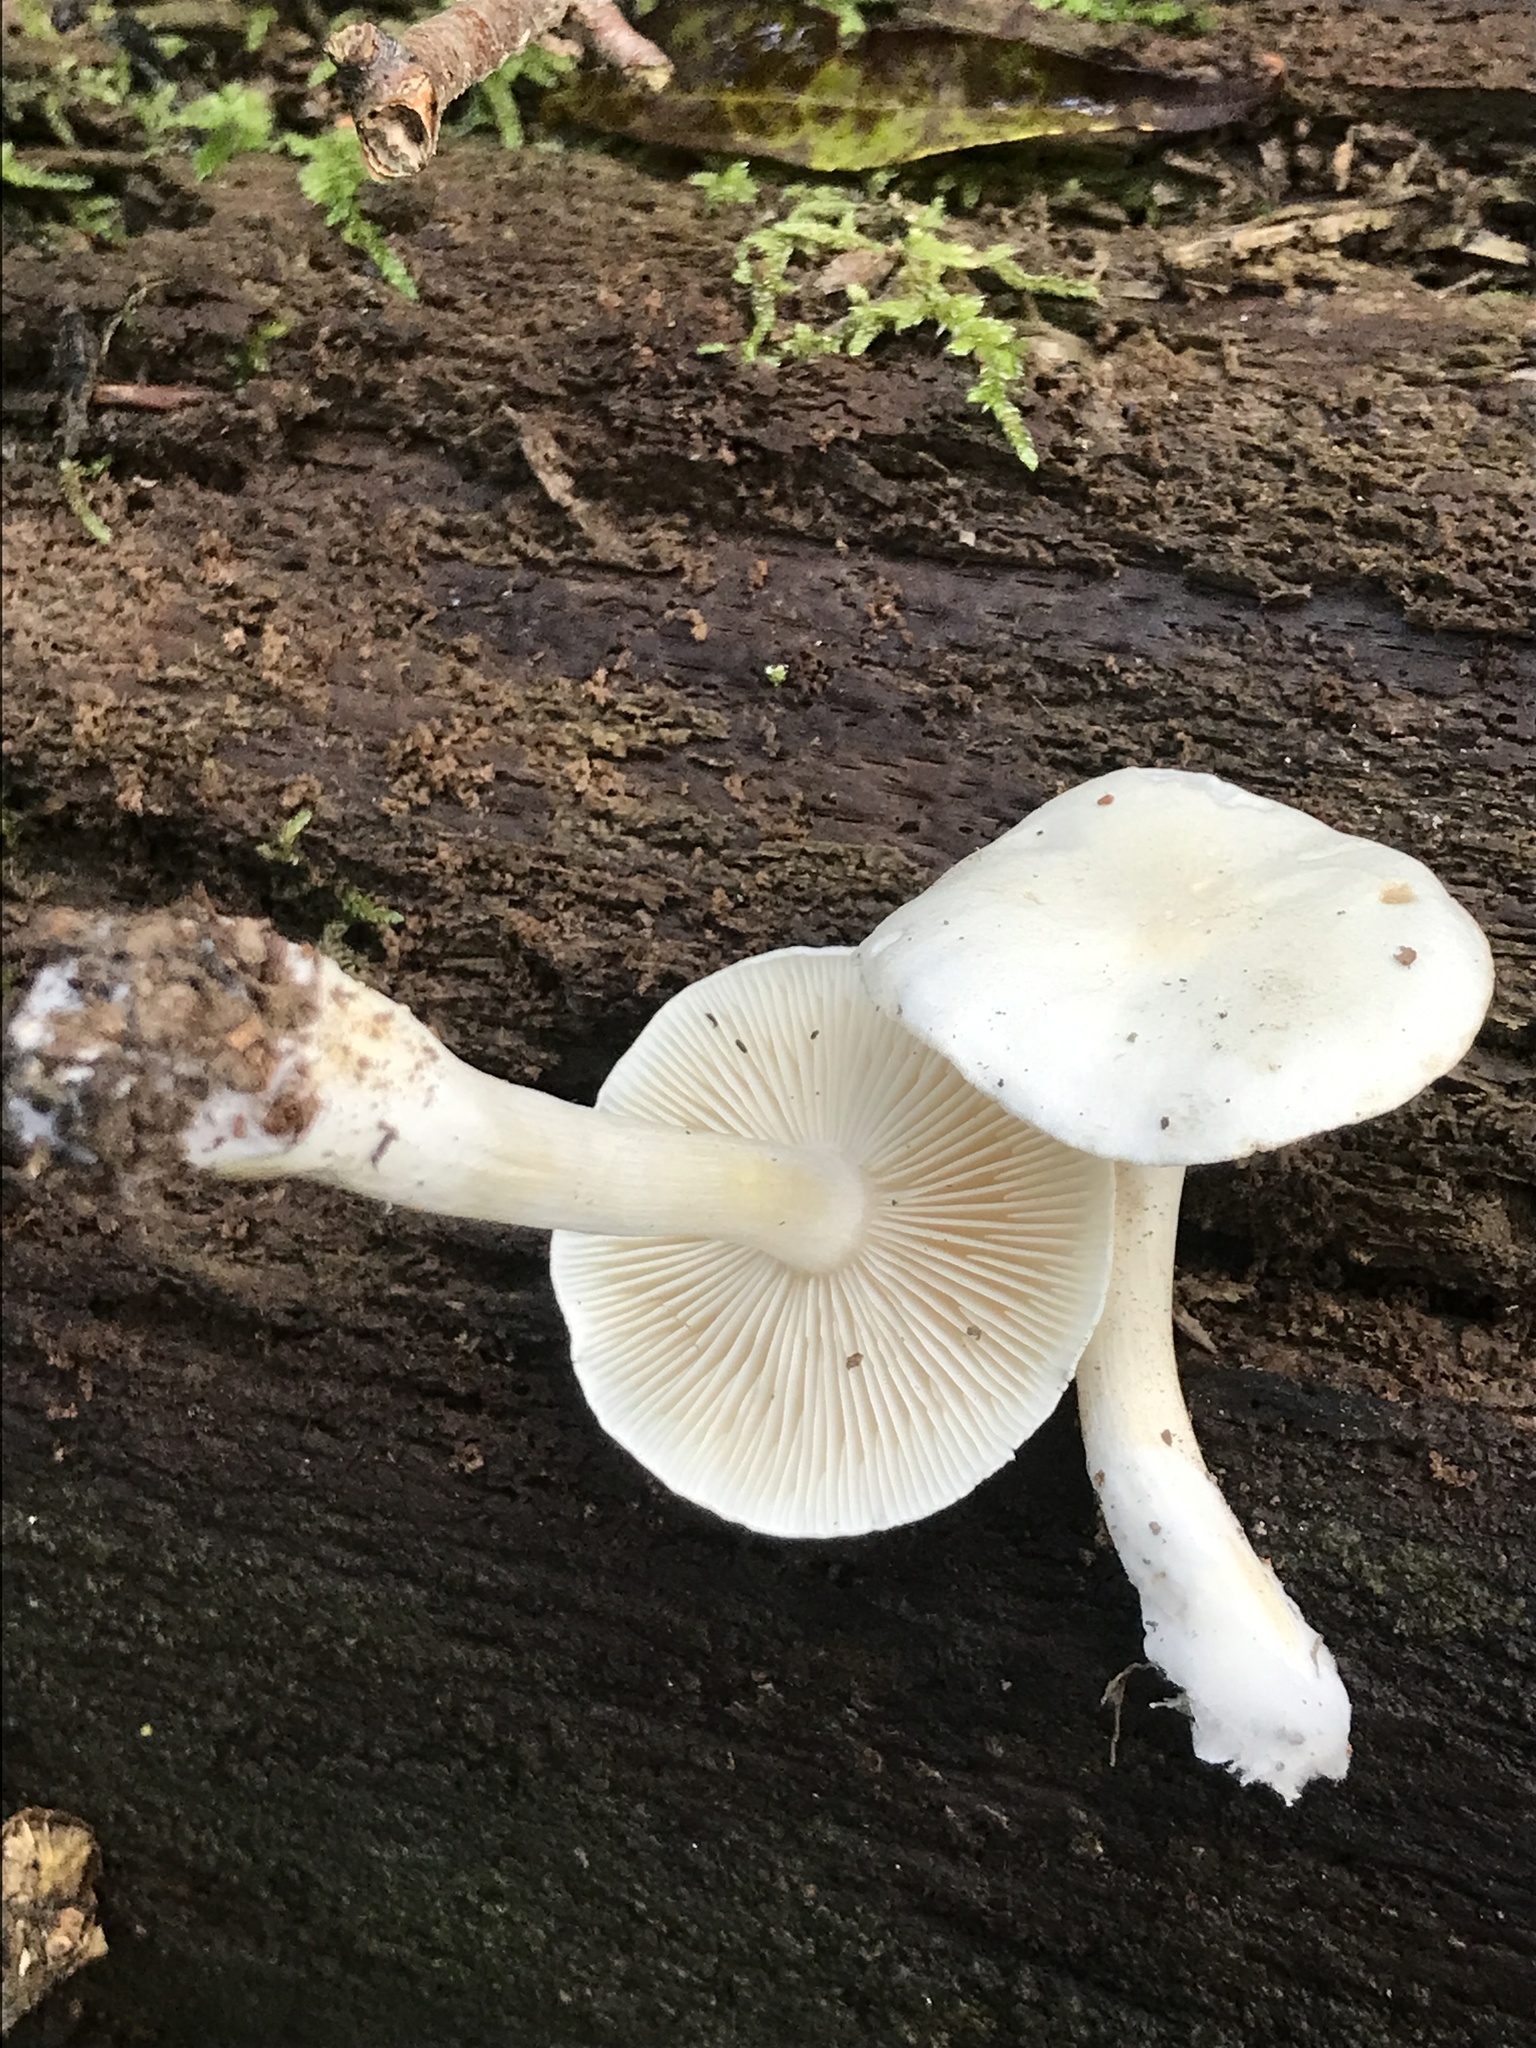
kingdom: Fungi
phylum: Basidiomycota
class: Agaricomycetes
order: Agaricales
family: Tricholomataceae
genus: Tricholoma
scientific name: Tricholoma album
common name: White knight
